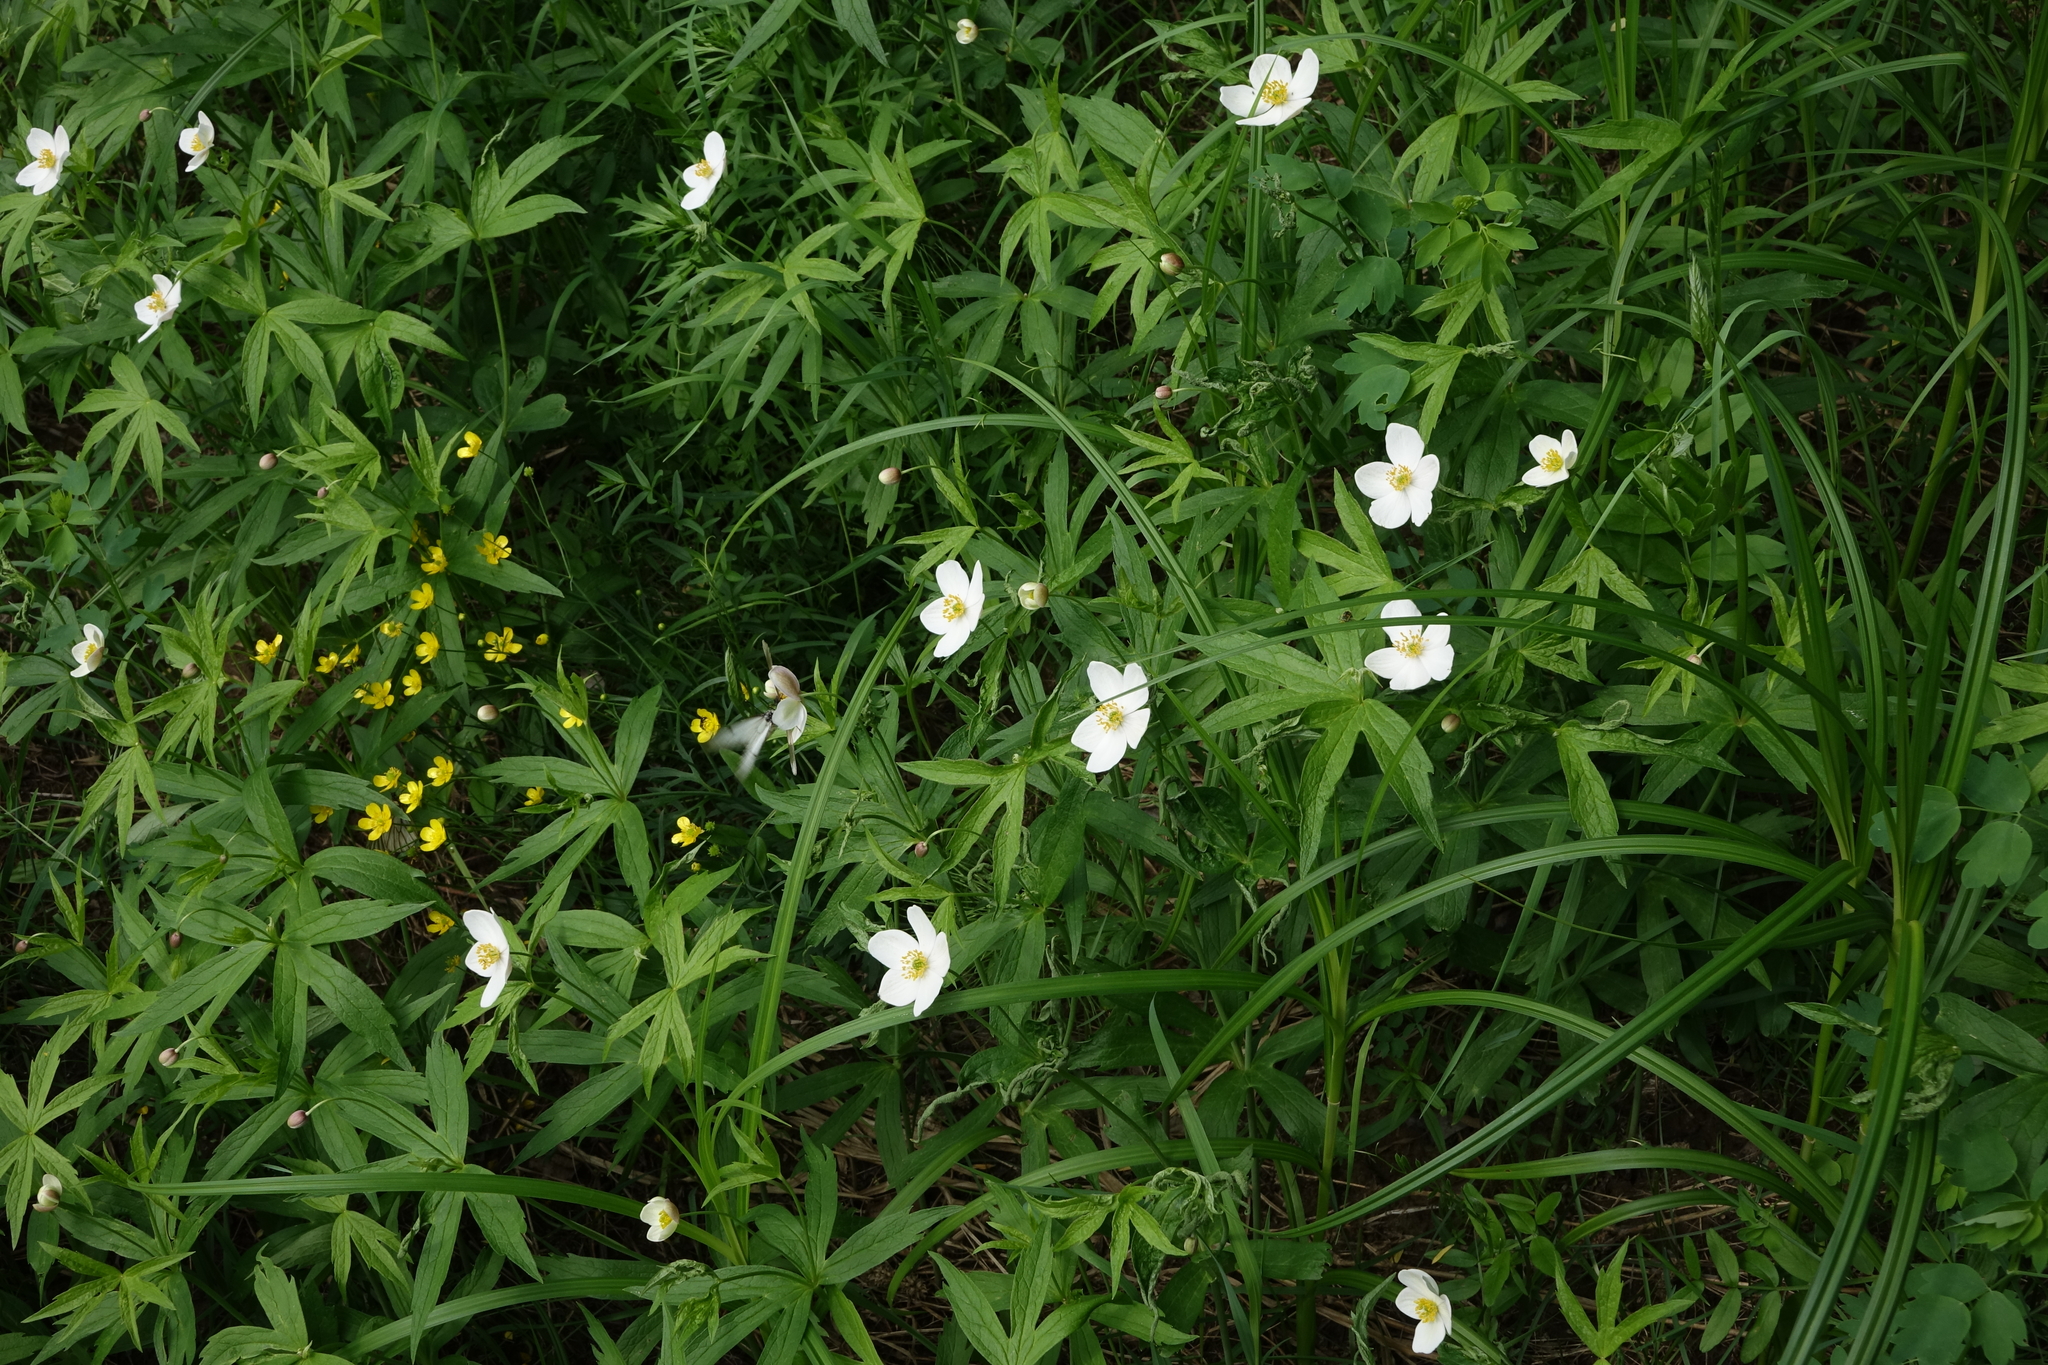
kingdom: Plantae
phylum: Tracheophyta
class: Magnoliopsida
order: Ranunculales
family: Ranunculaceae
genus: Anemonastrum
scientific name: Anemonastrum dichotomum
